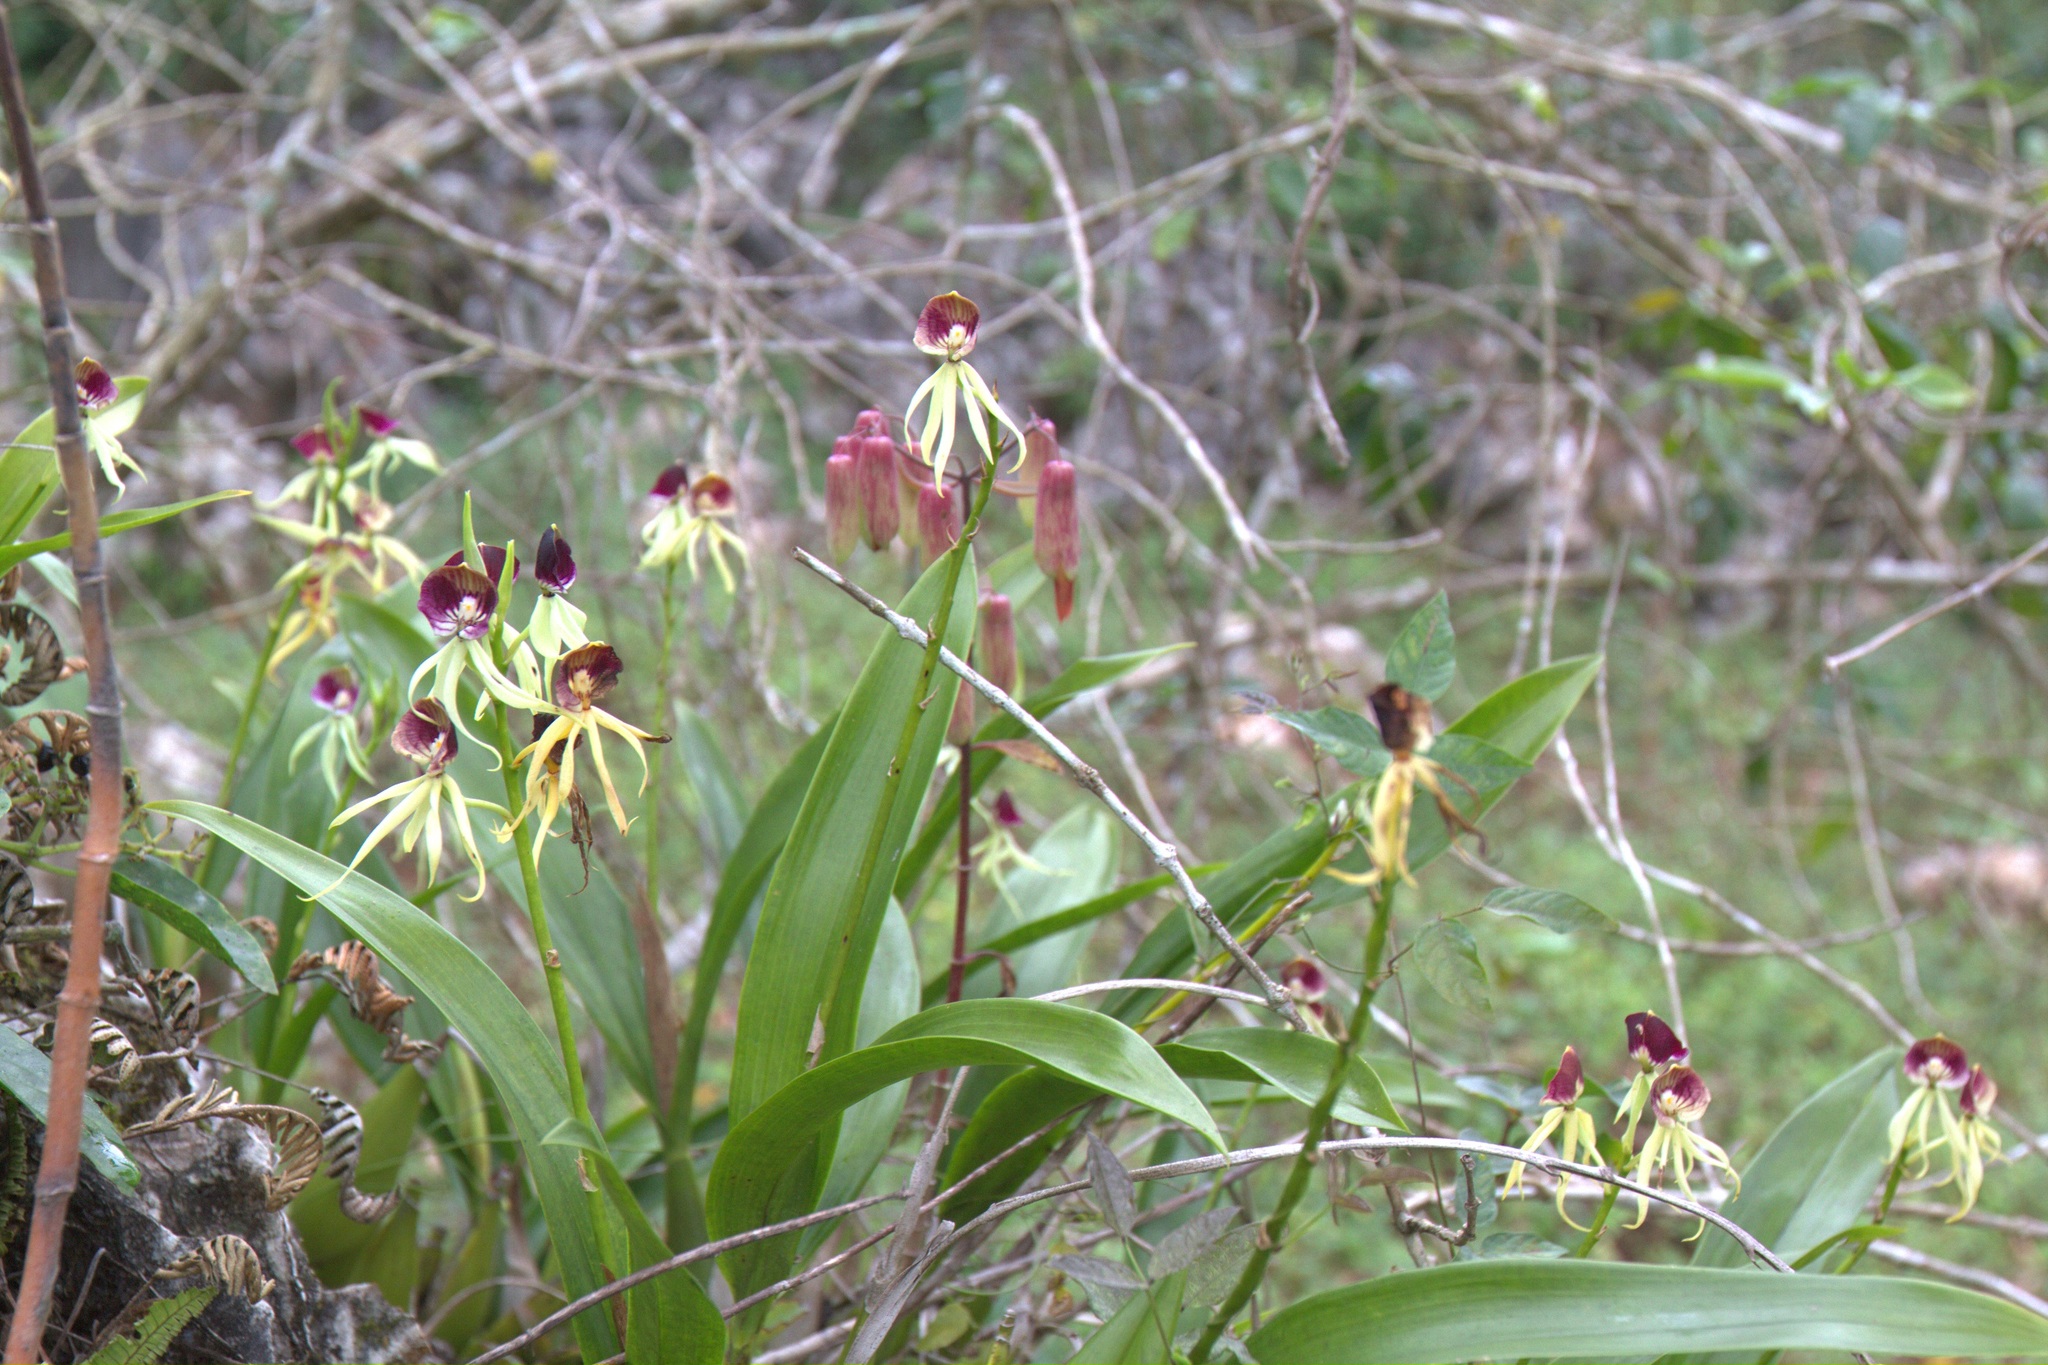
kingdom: Plantae
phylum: Tracheophyta
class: Liliopsida
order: Asparagales
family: Orchidaceae
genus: Prosthechea
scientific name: Prosthechea cochleata
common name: Clamshell orchid
